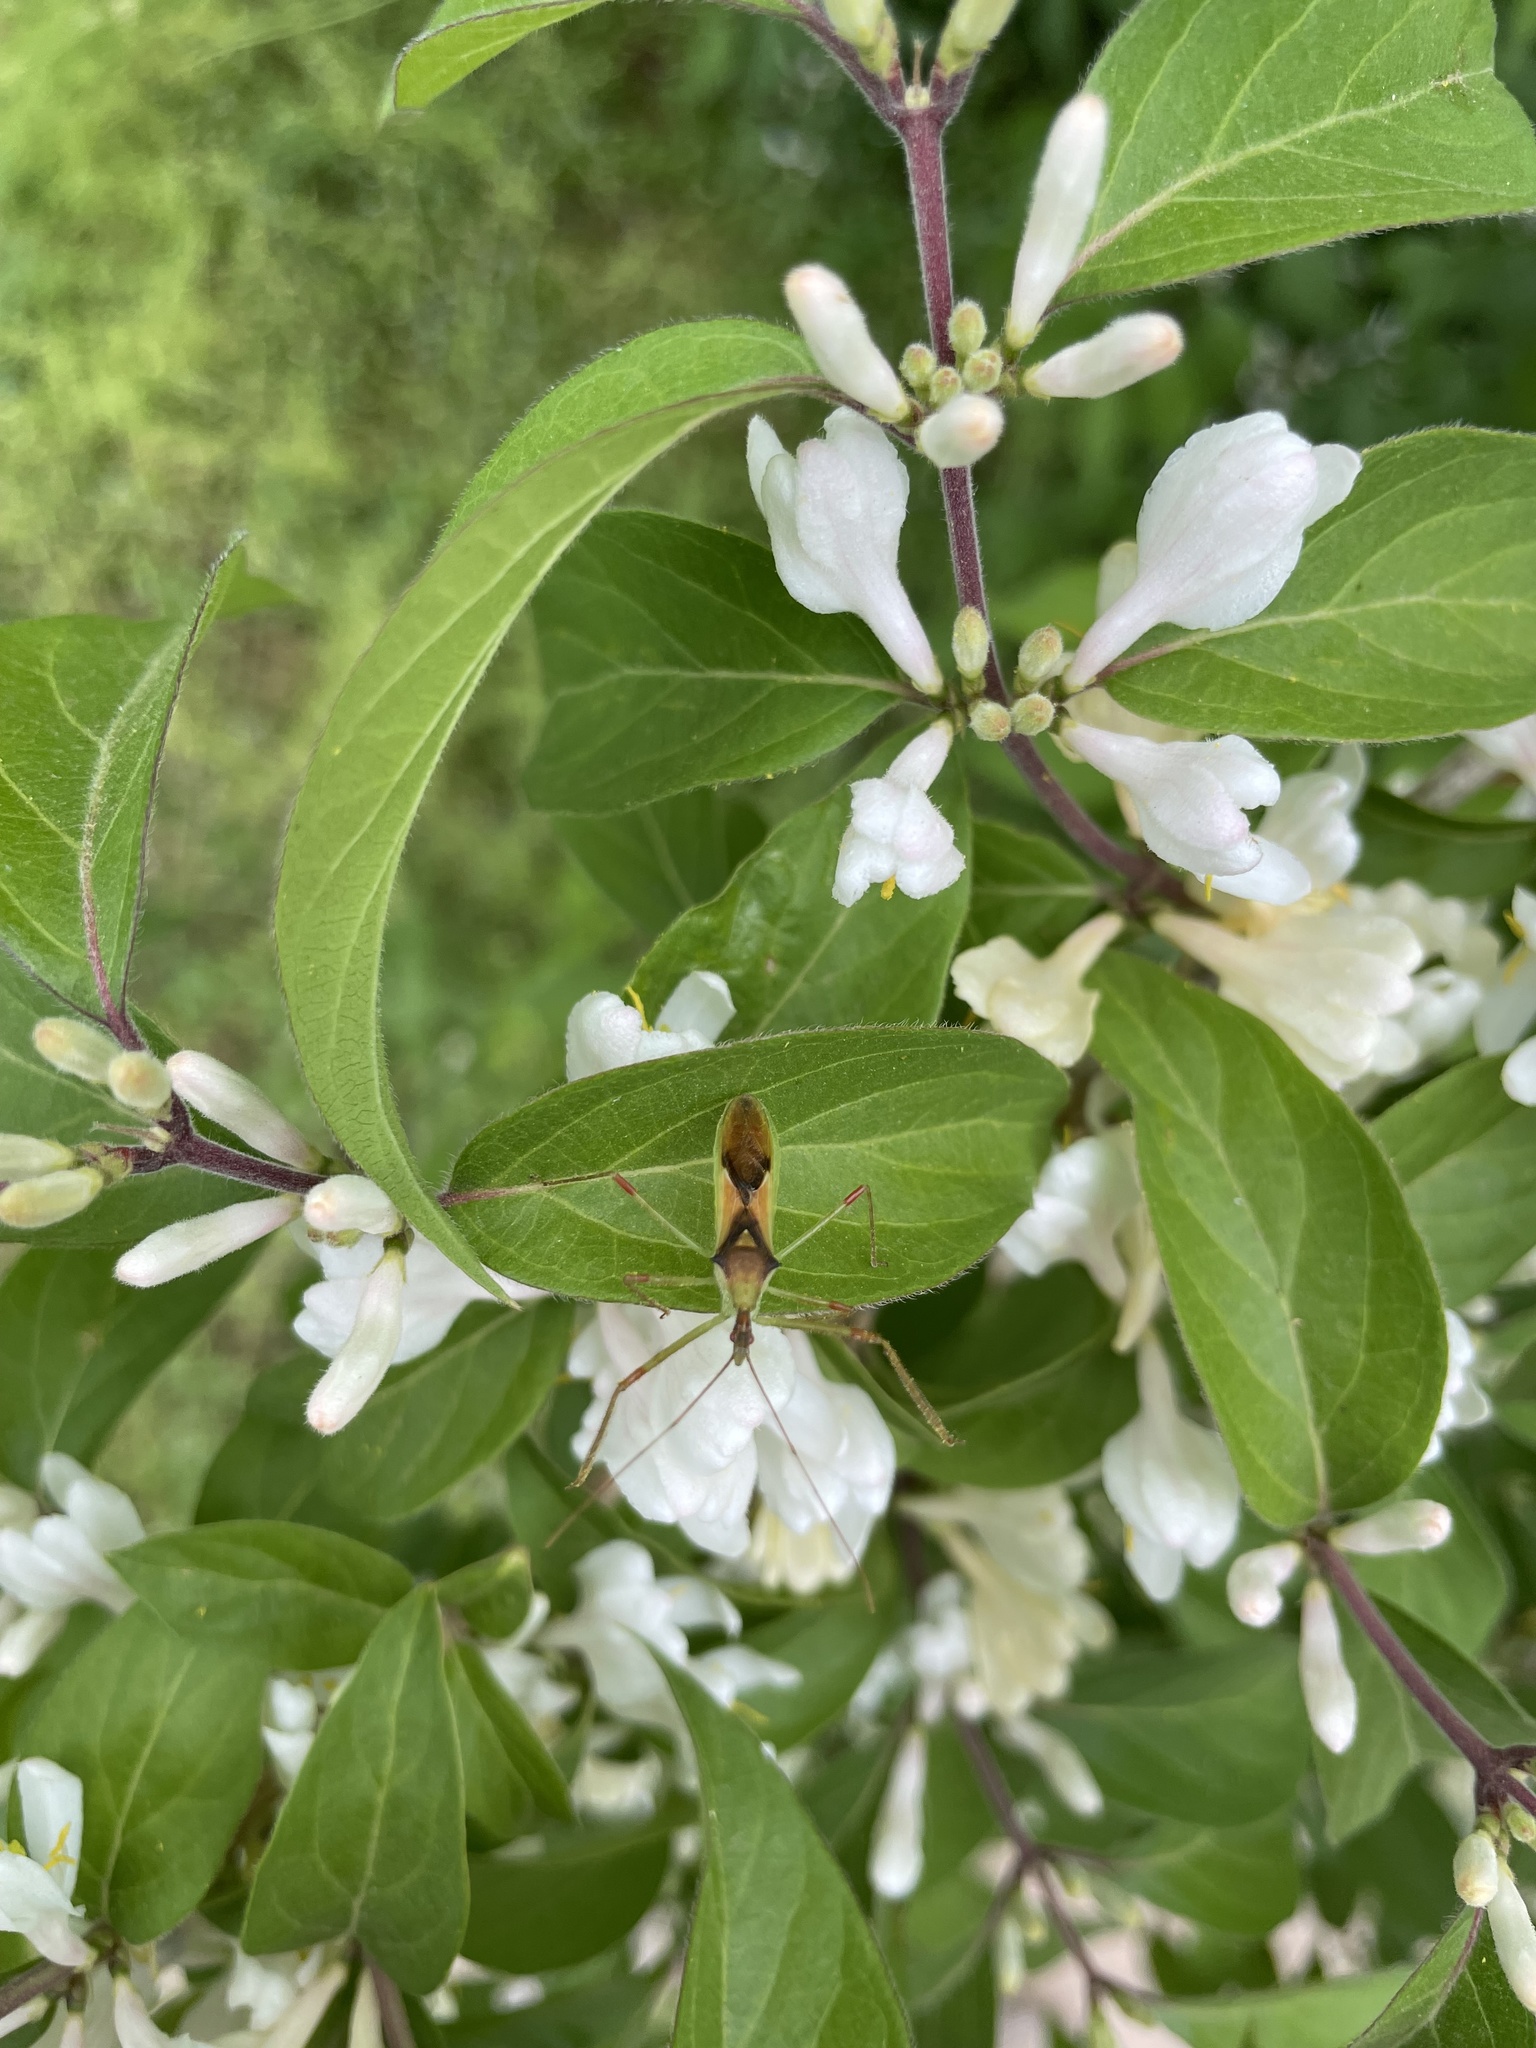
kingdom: Animalia
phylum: Arthropoda
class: Insecta
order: Hemiptera
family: Reduviidae
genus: Zelus
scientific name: Zelus luridus
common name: Pale green assassin bug
